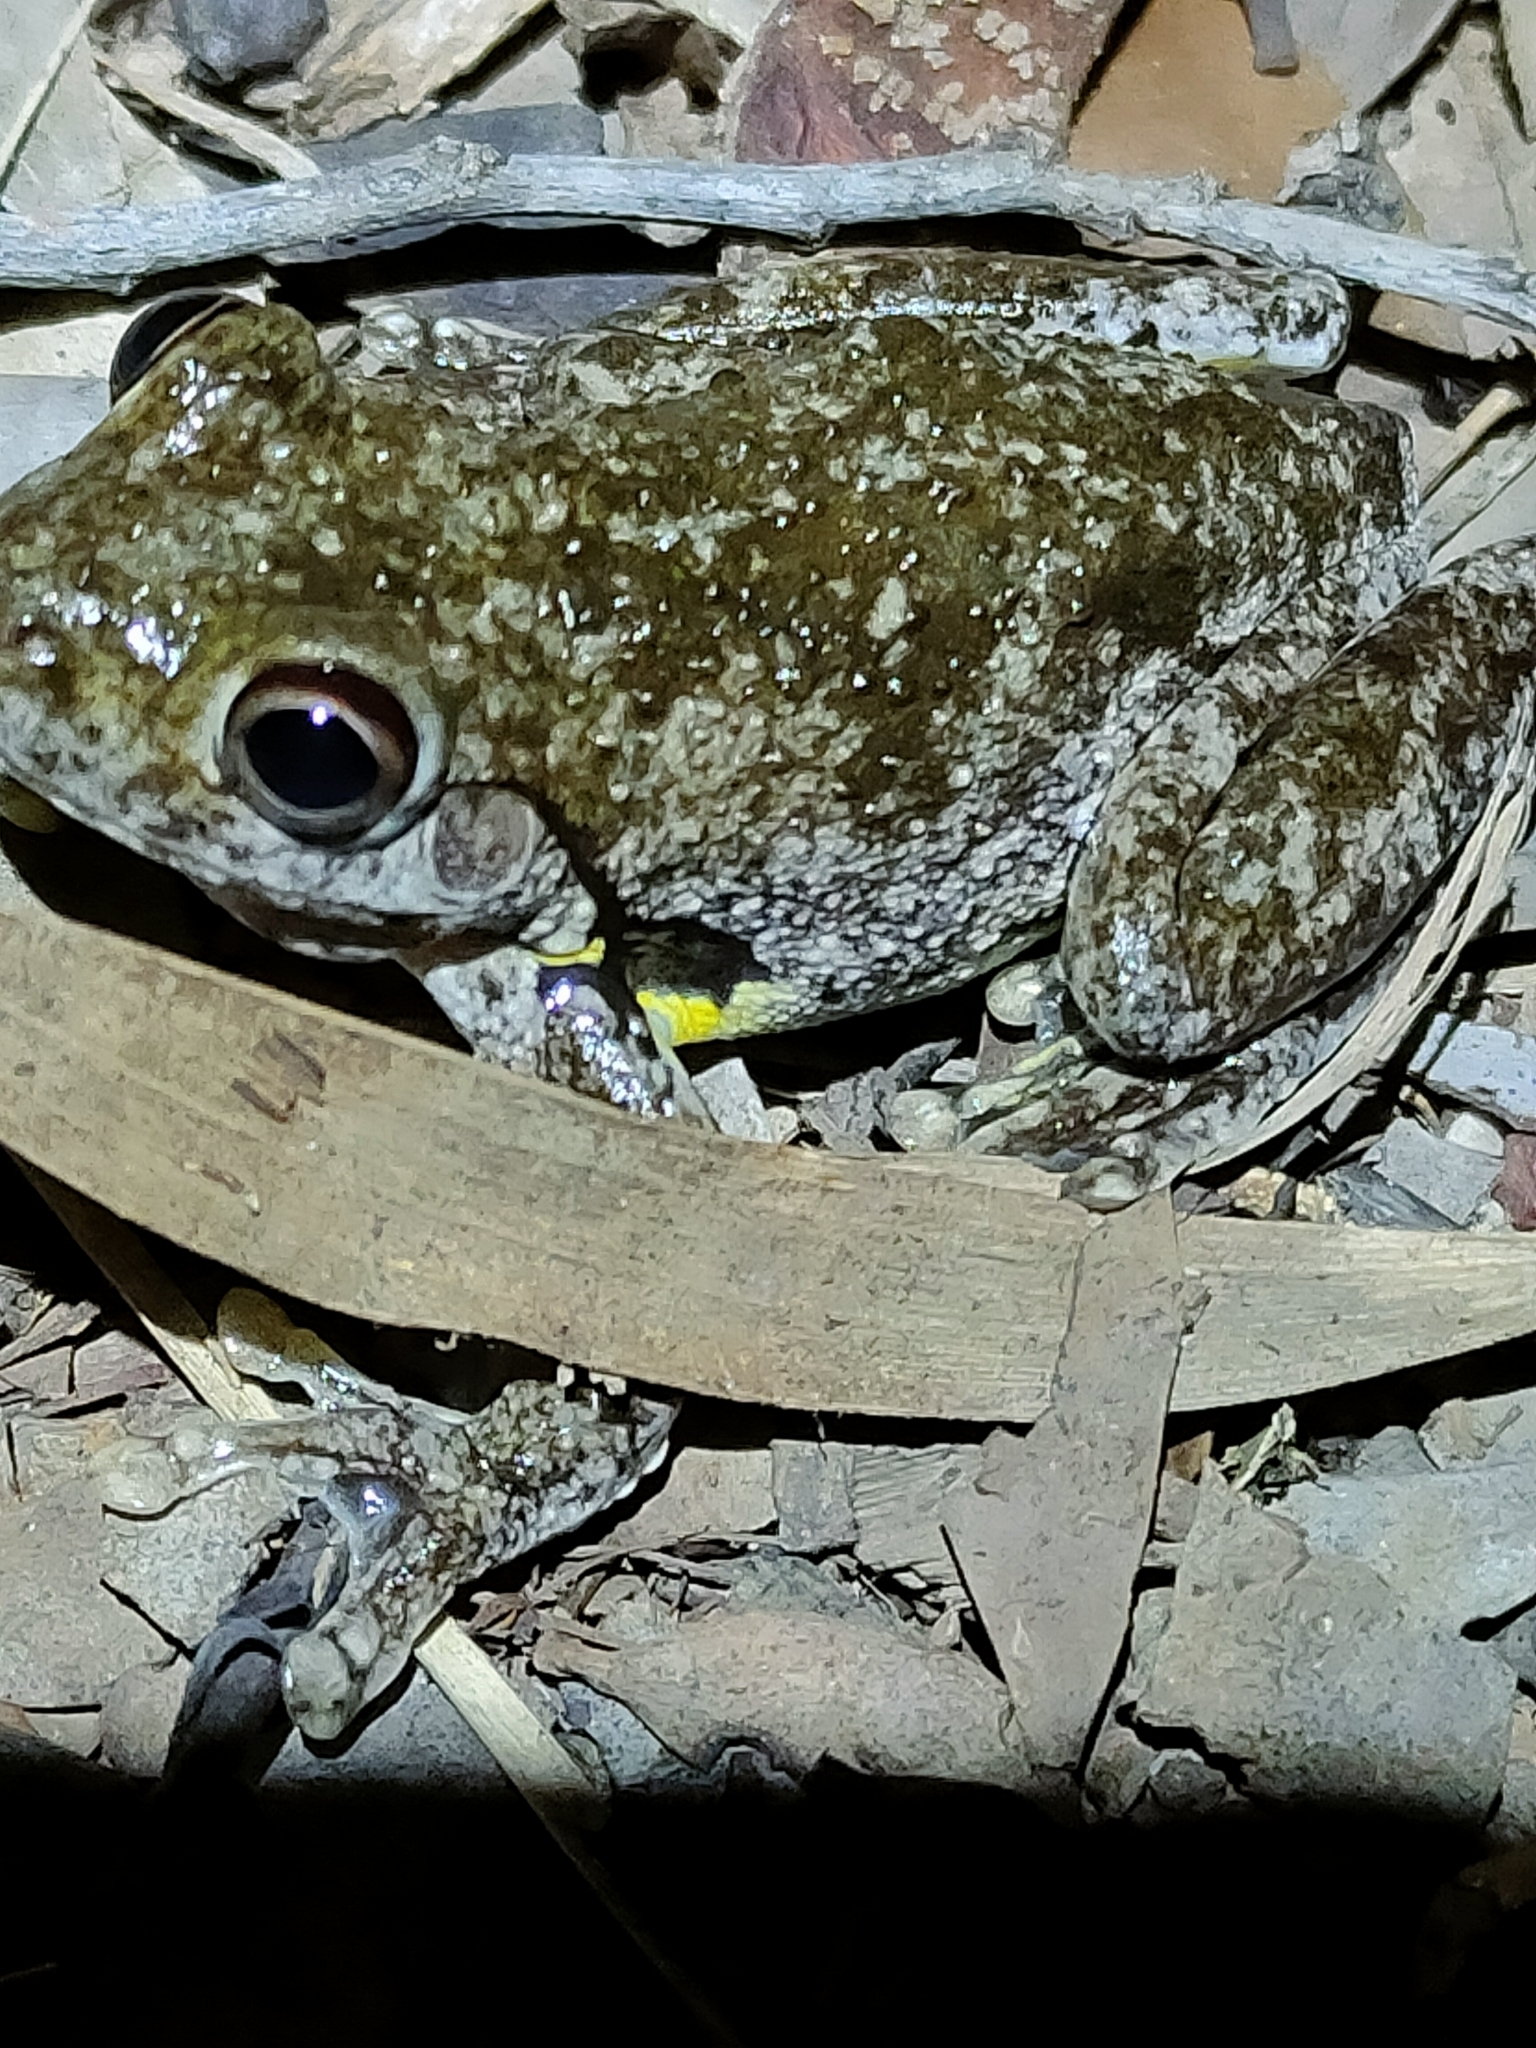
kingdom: Animalia
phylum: Chordata
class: Amphibia
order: Anura
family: Pelodryadidae
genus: Litoria
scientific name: Litoria rothii
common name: Roth’s tree frog
